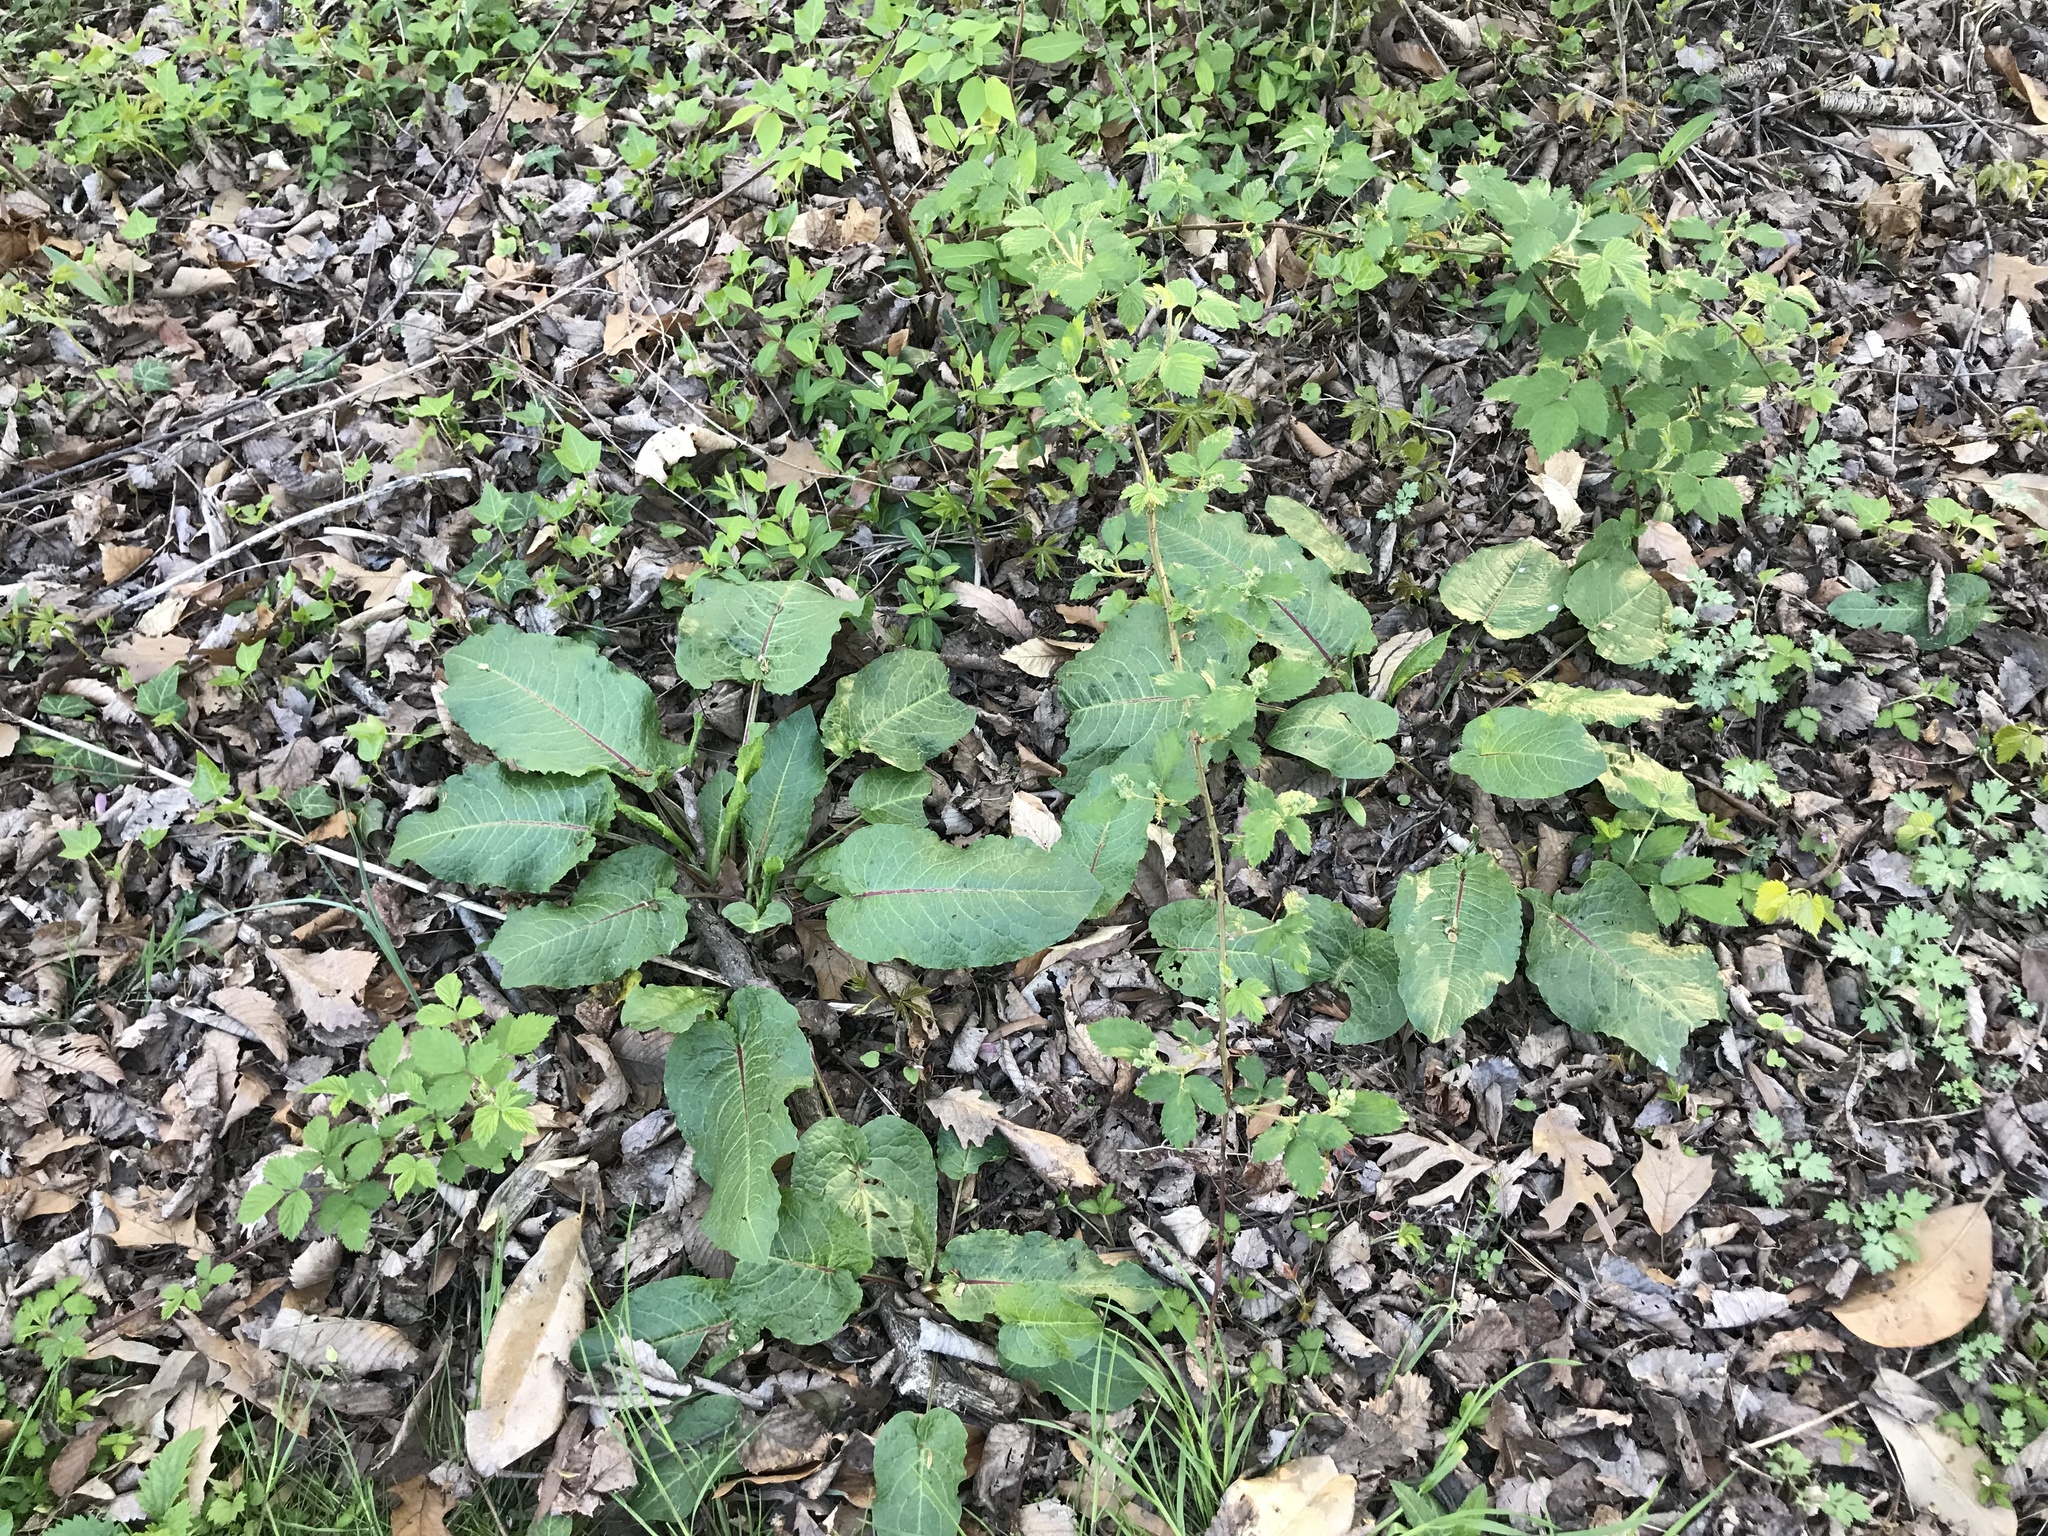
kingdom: Plantae
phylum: Tracheophyta
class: Magnoliopsida
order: Caryophyllales
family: Polygonaceae
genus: Rumex
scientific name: Rumex obtusifolius
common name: Bitter dock
